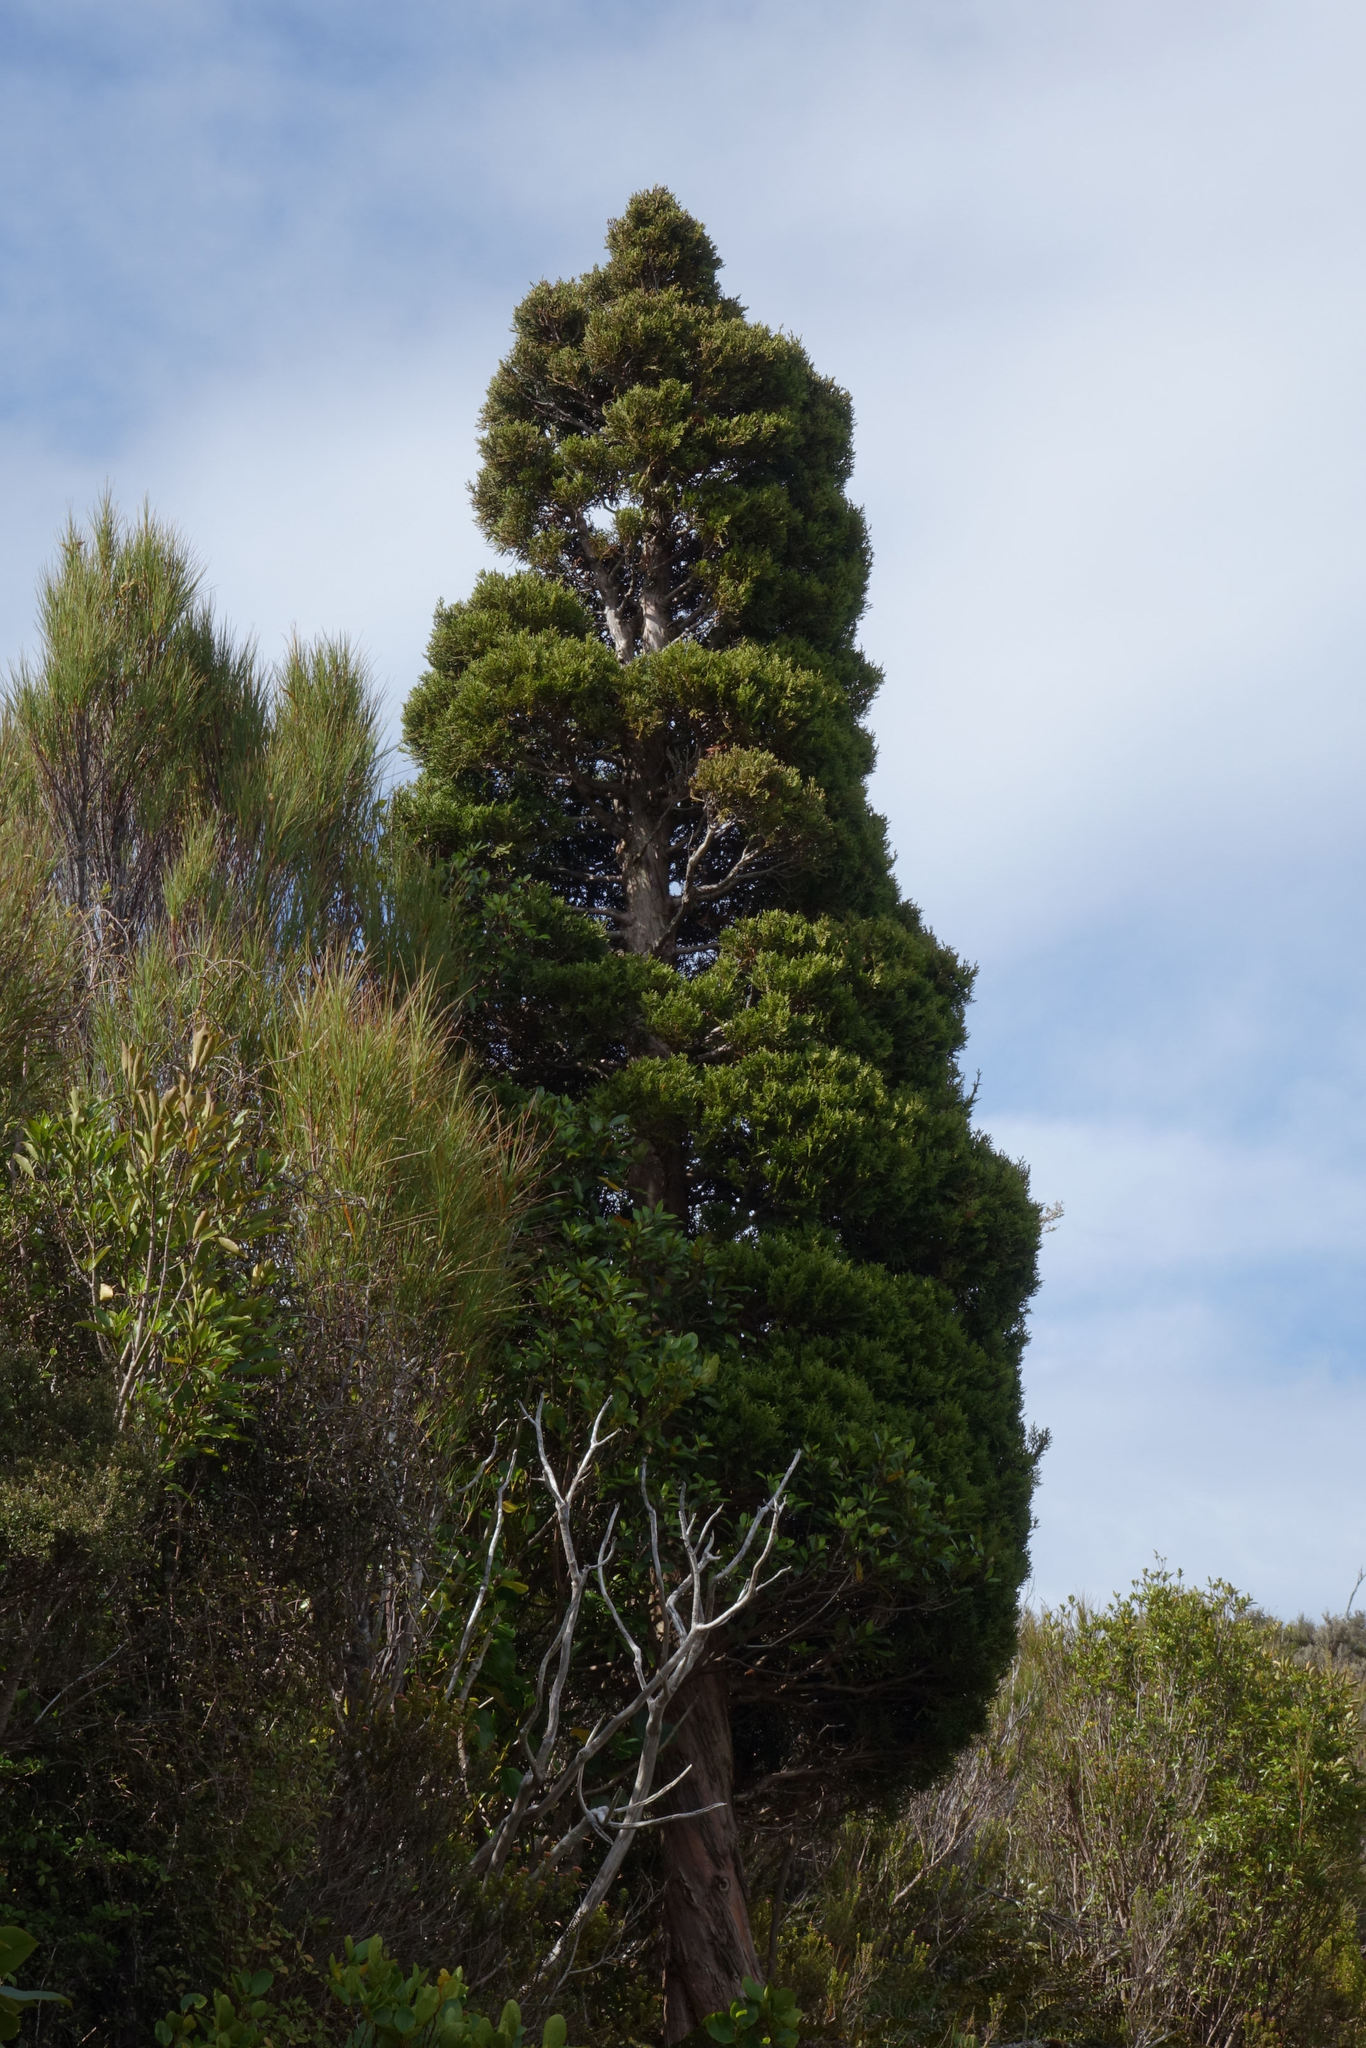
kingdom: Plantae
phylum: Tracheophyta
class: Pinopsida
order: Pinales
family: Cupressaceae
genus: Libocedrus
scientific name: Libocedrus bidwillii
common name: Cedar
